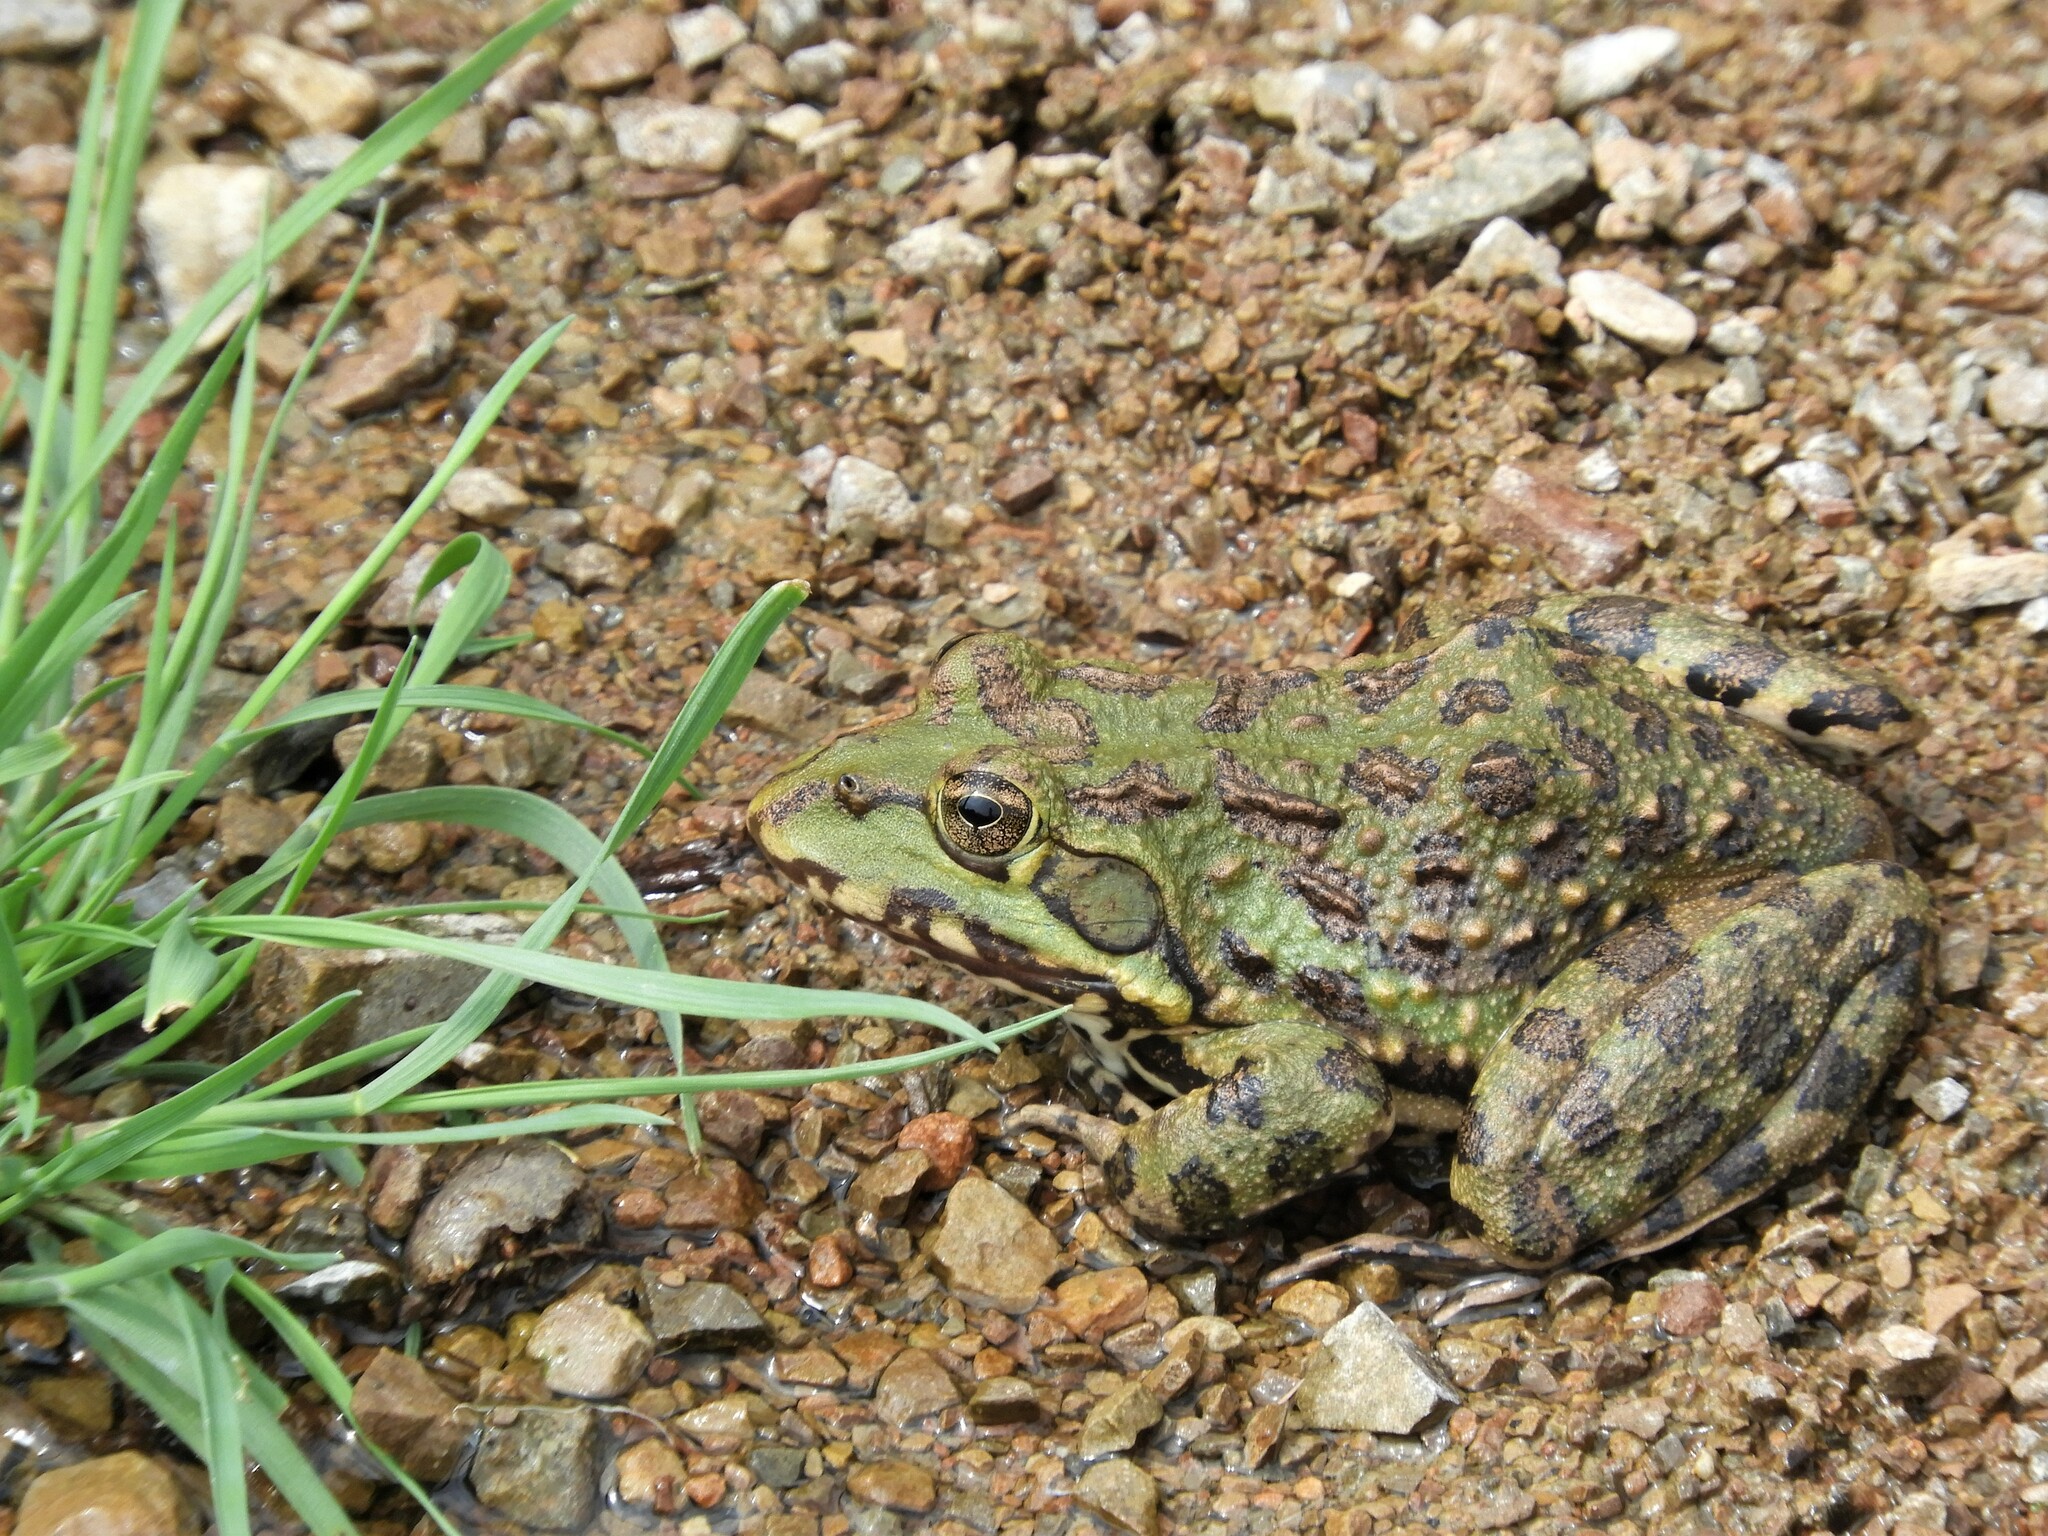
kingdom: Animalia
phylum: Chordata
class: Amphibia
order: Anura
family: Pyxicephalidae
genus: Amietia
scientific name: Amietia poyntoni
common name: Poynton's river frog
